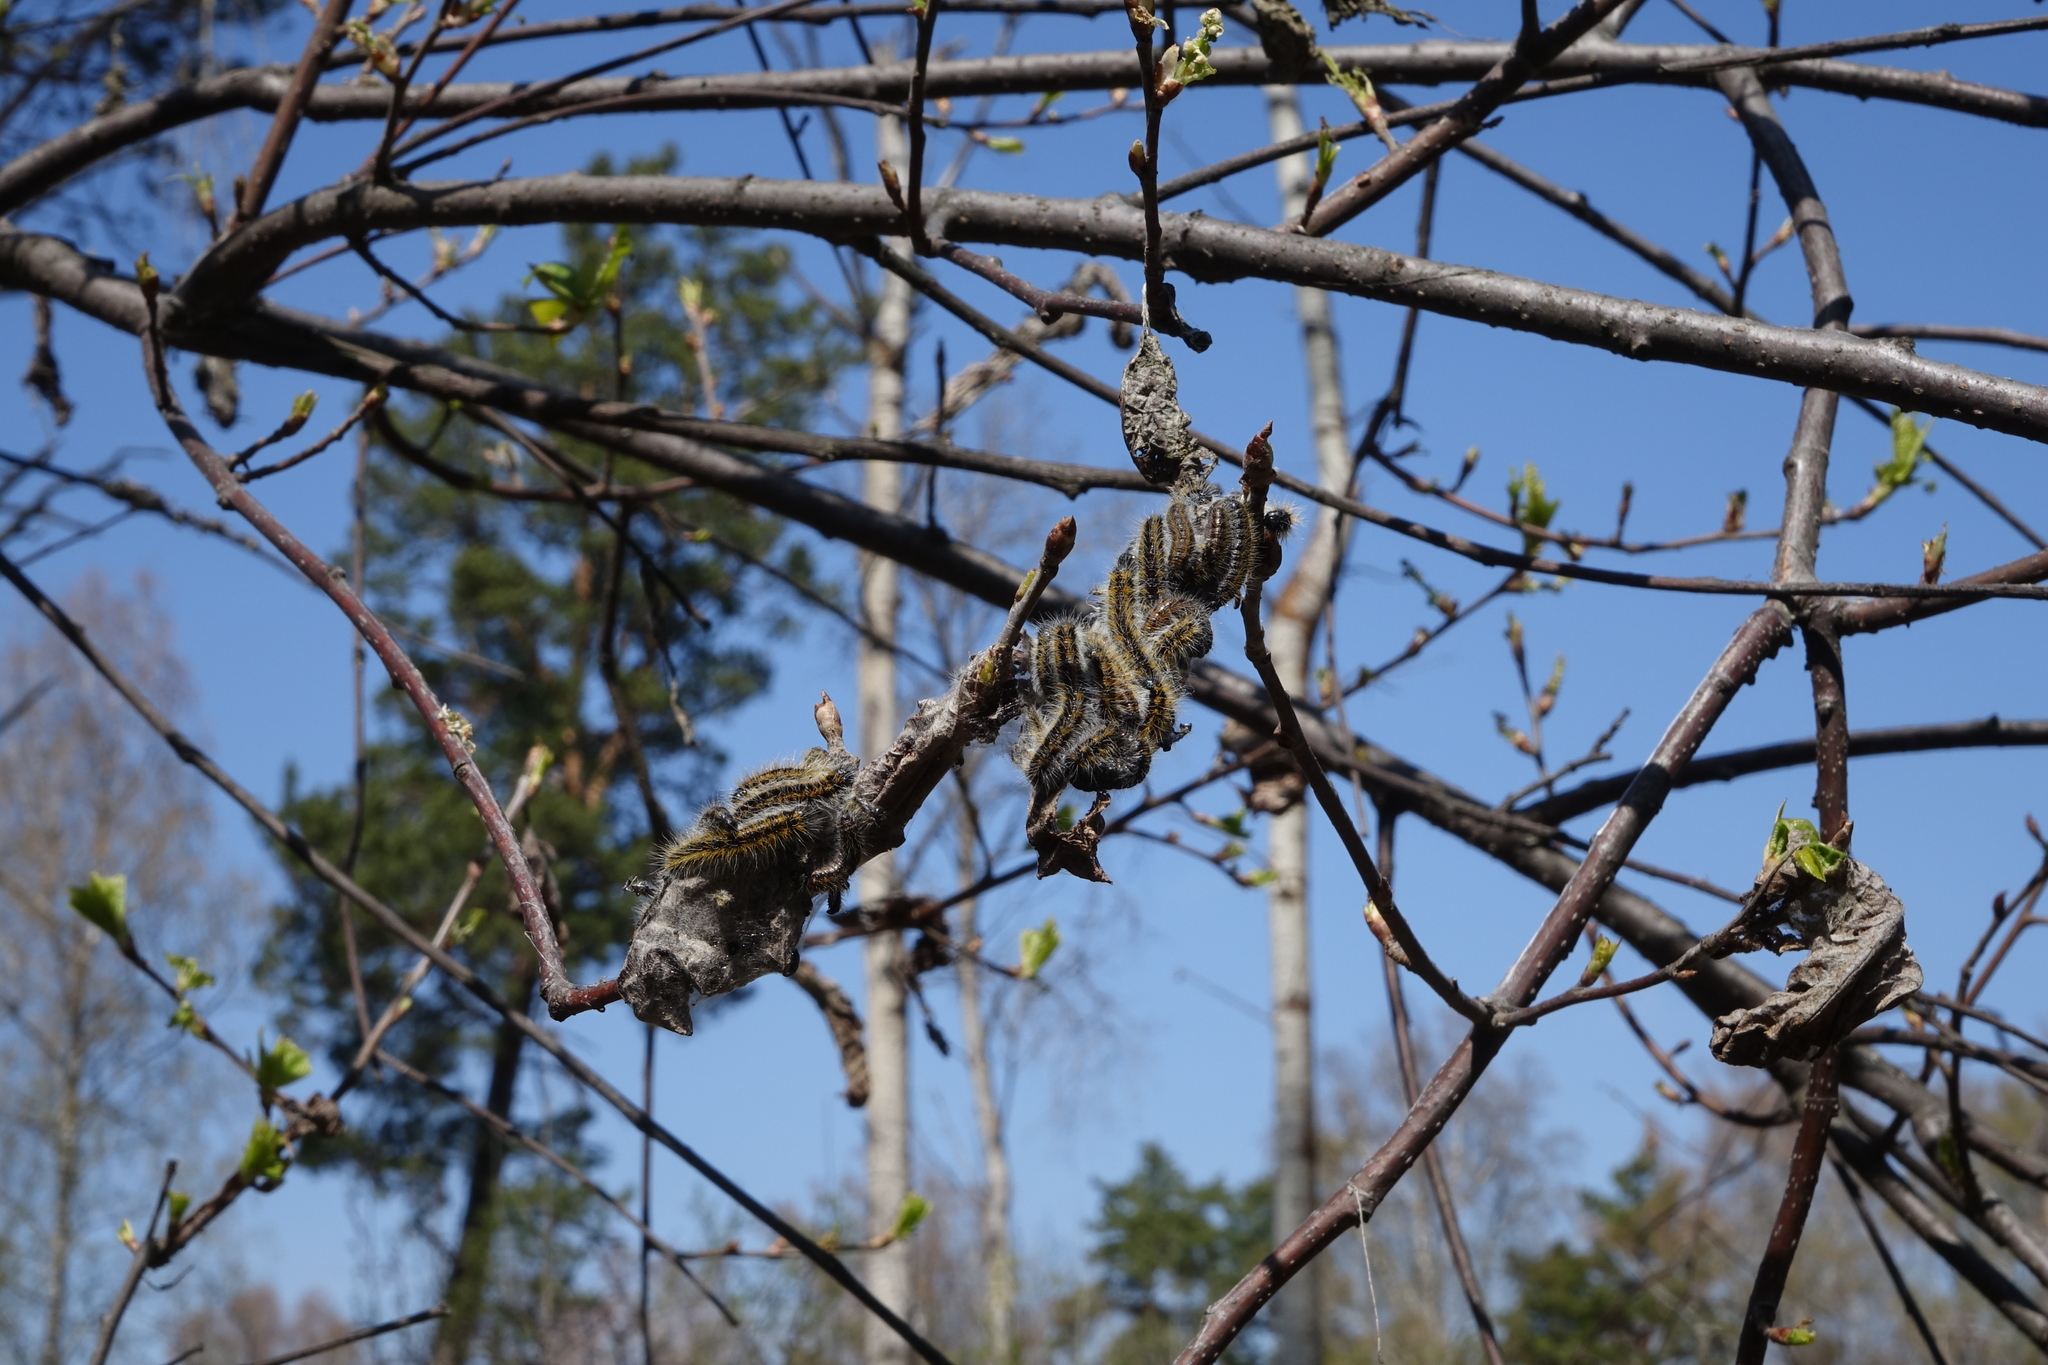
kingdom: Animalia
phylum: Arthropoda
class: Insecta
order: Lepidoptera
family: Pieridae
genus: Aporia
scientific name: Aporia crataegi
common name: Black-veined white
